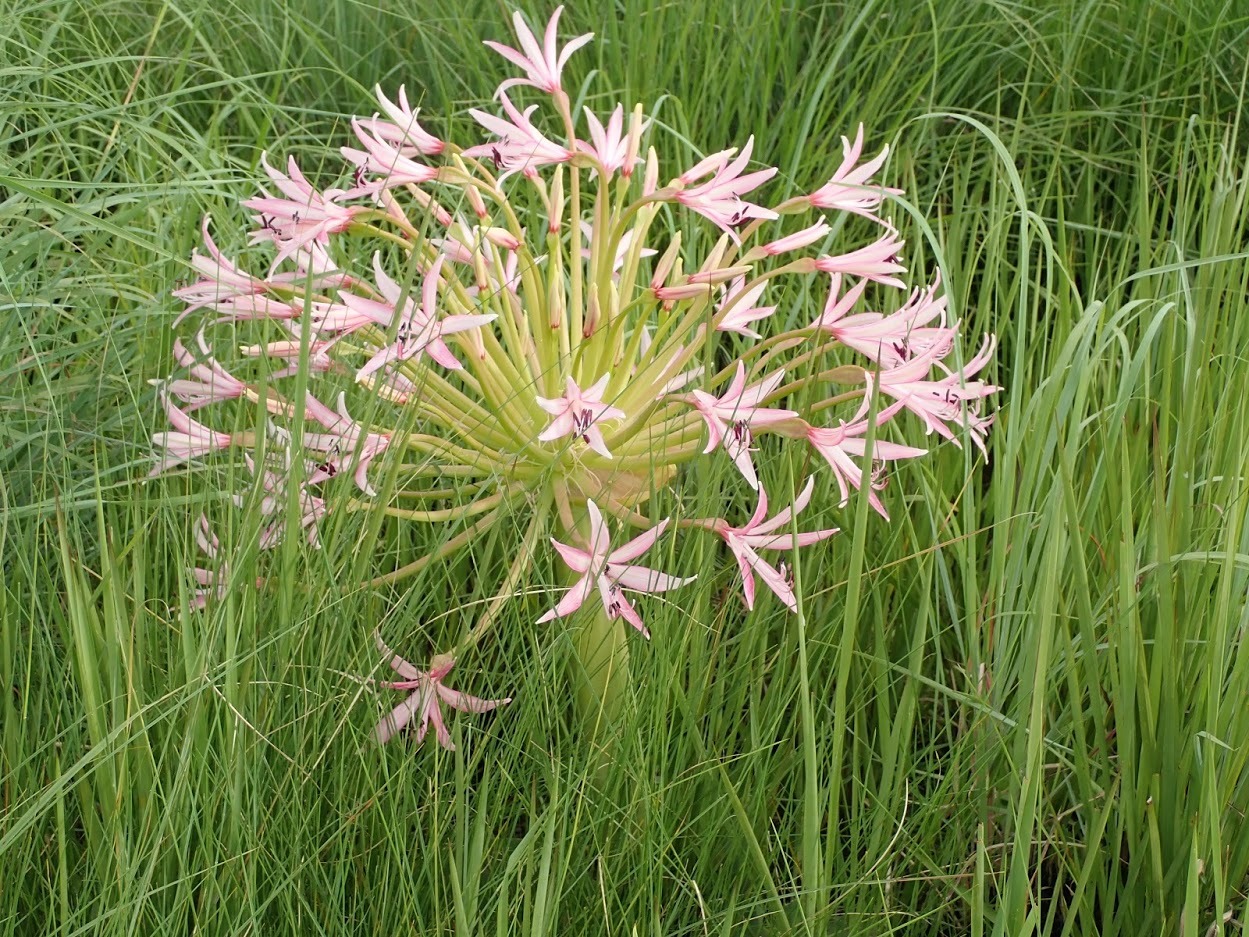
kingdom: Plantae
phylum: Tracheophyta
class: Liliopsida
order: Asparagales
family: Amaryllidaceae
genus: Brunsvigia
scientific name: Brunsvigia radulosa
